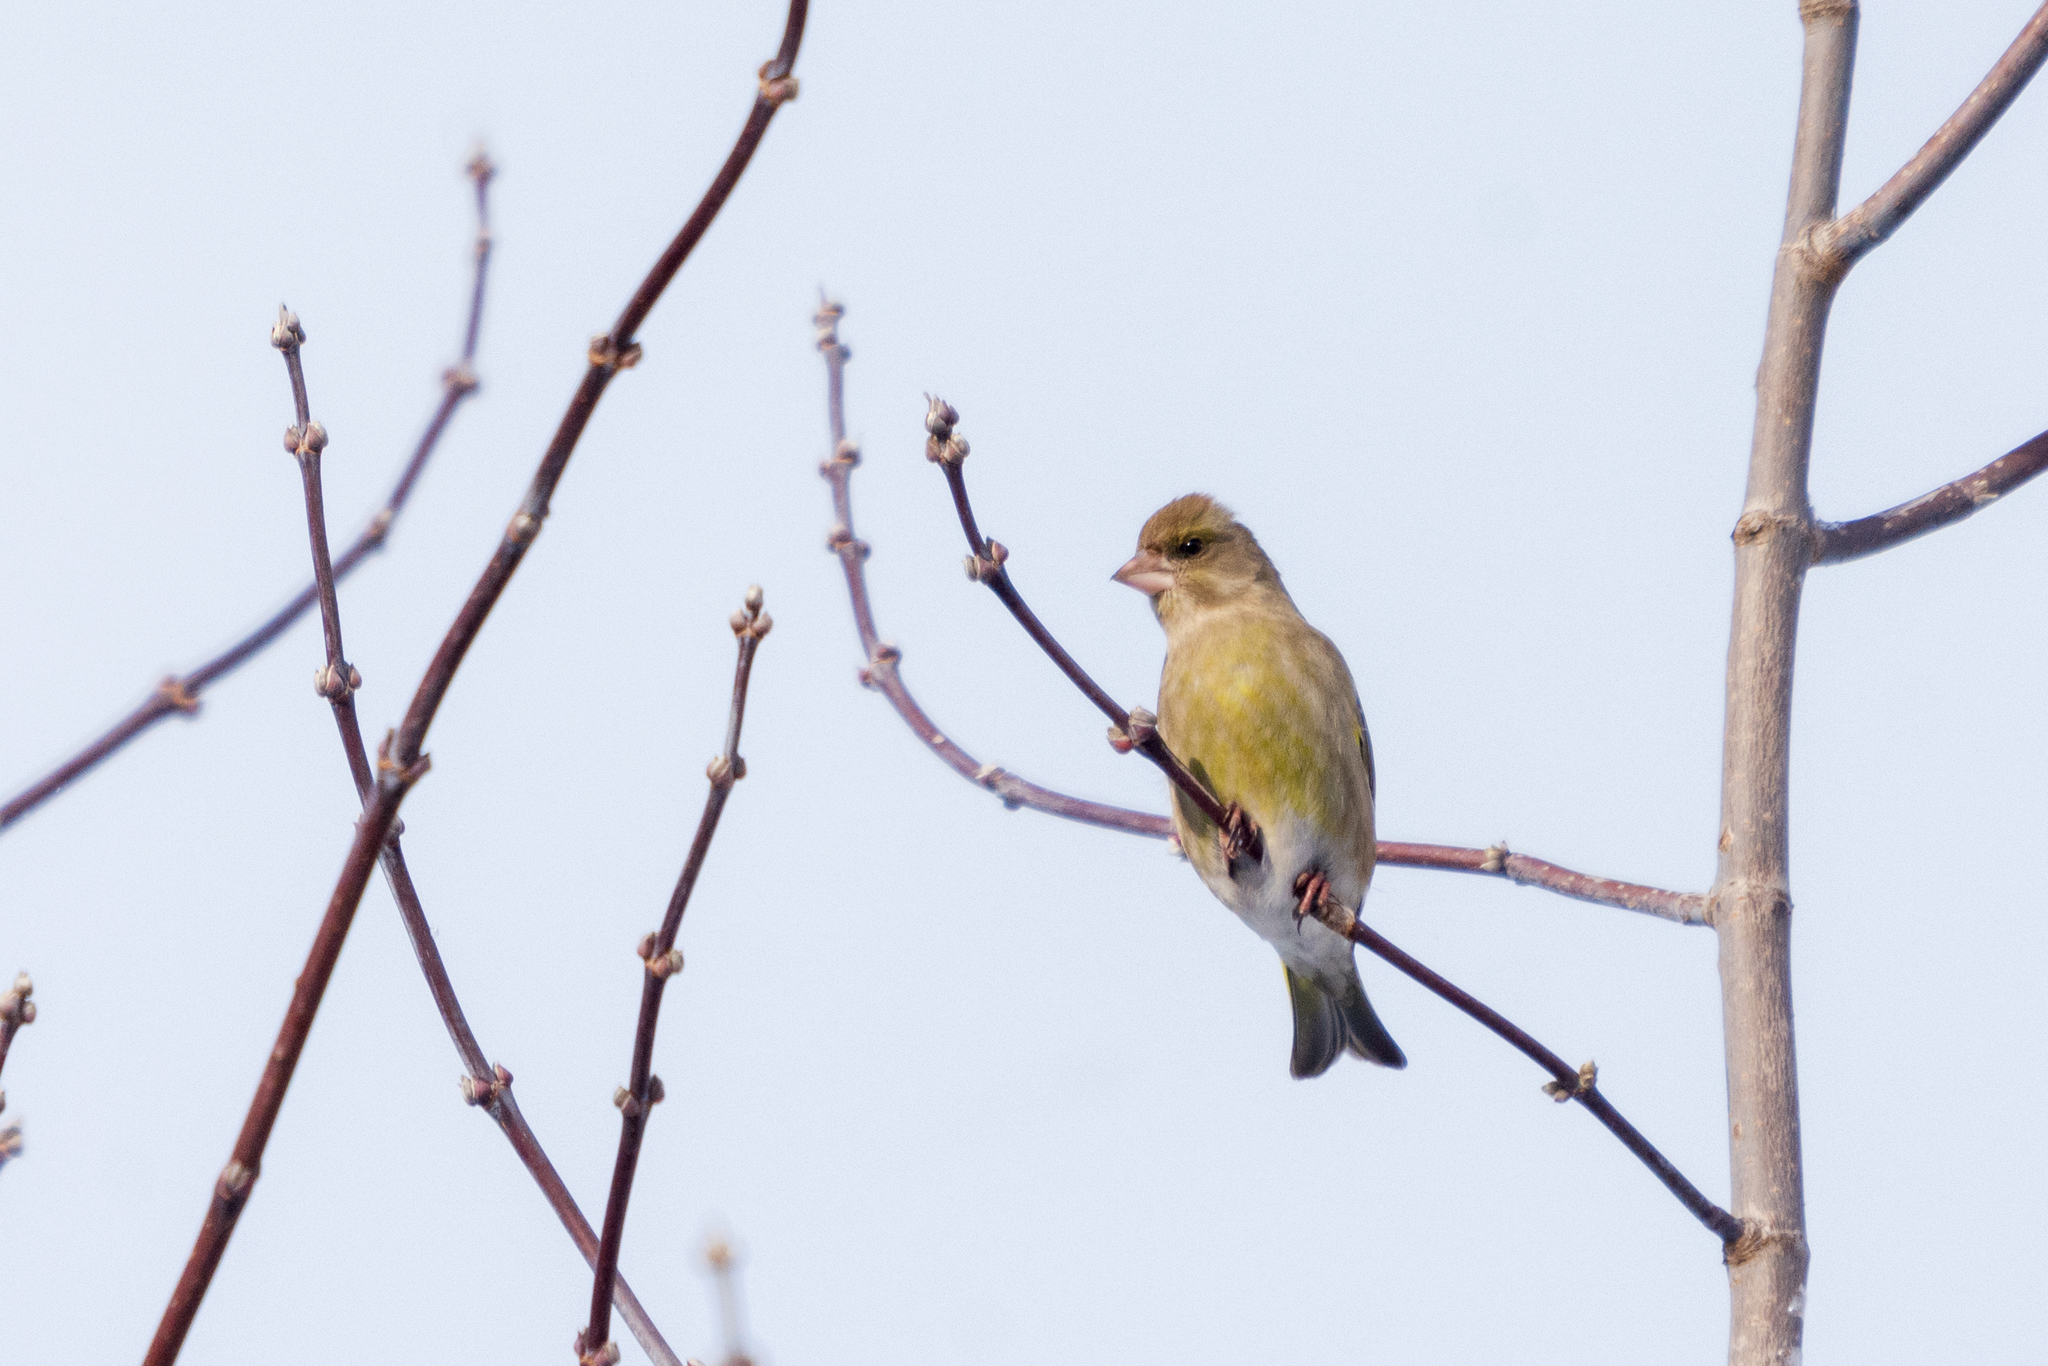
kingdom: Plantae
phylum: Tracheophyta
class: Liliopsida
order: Poales
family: Poaceae
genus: Chloris
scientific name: Chloris chloris
